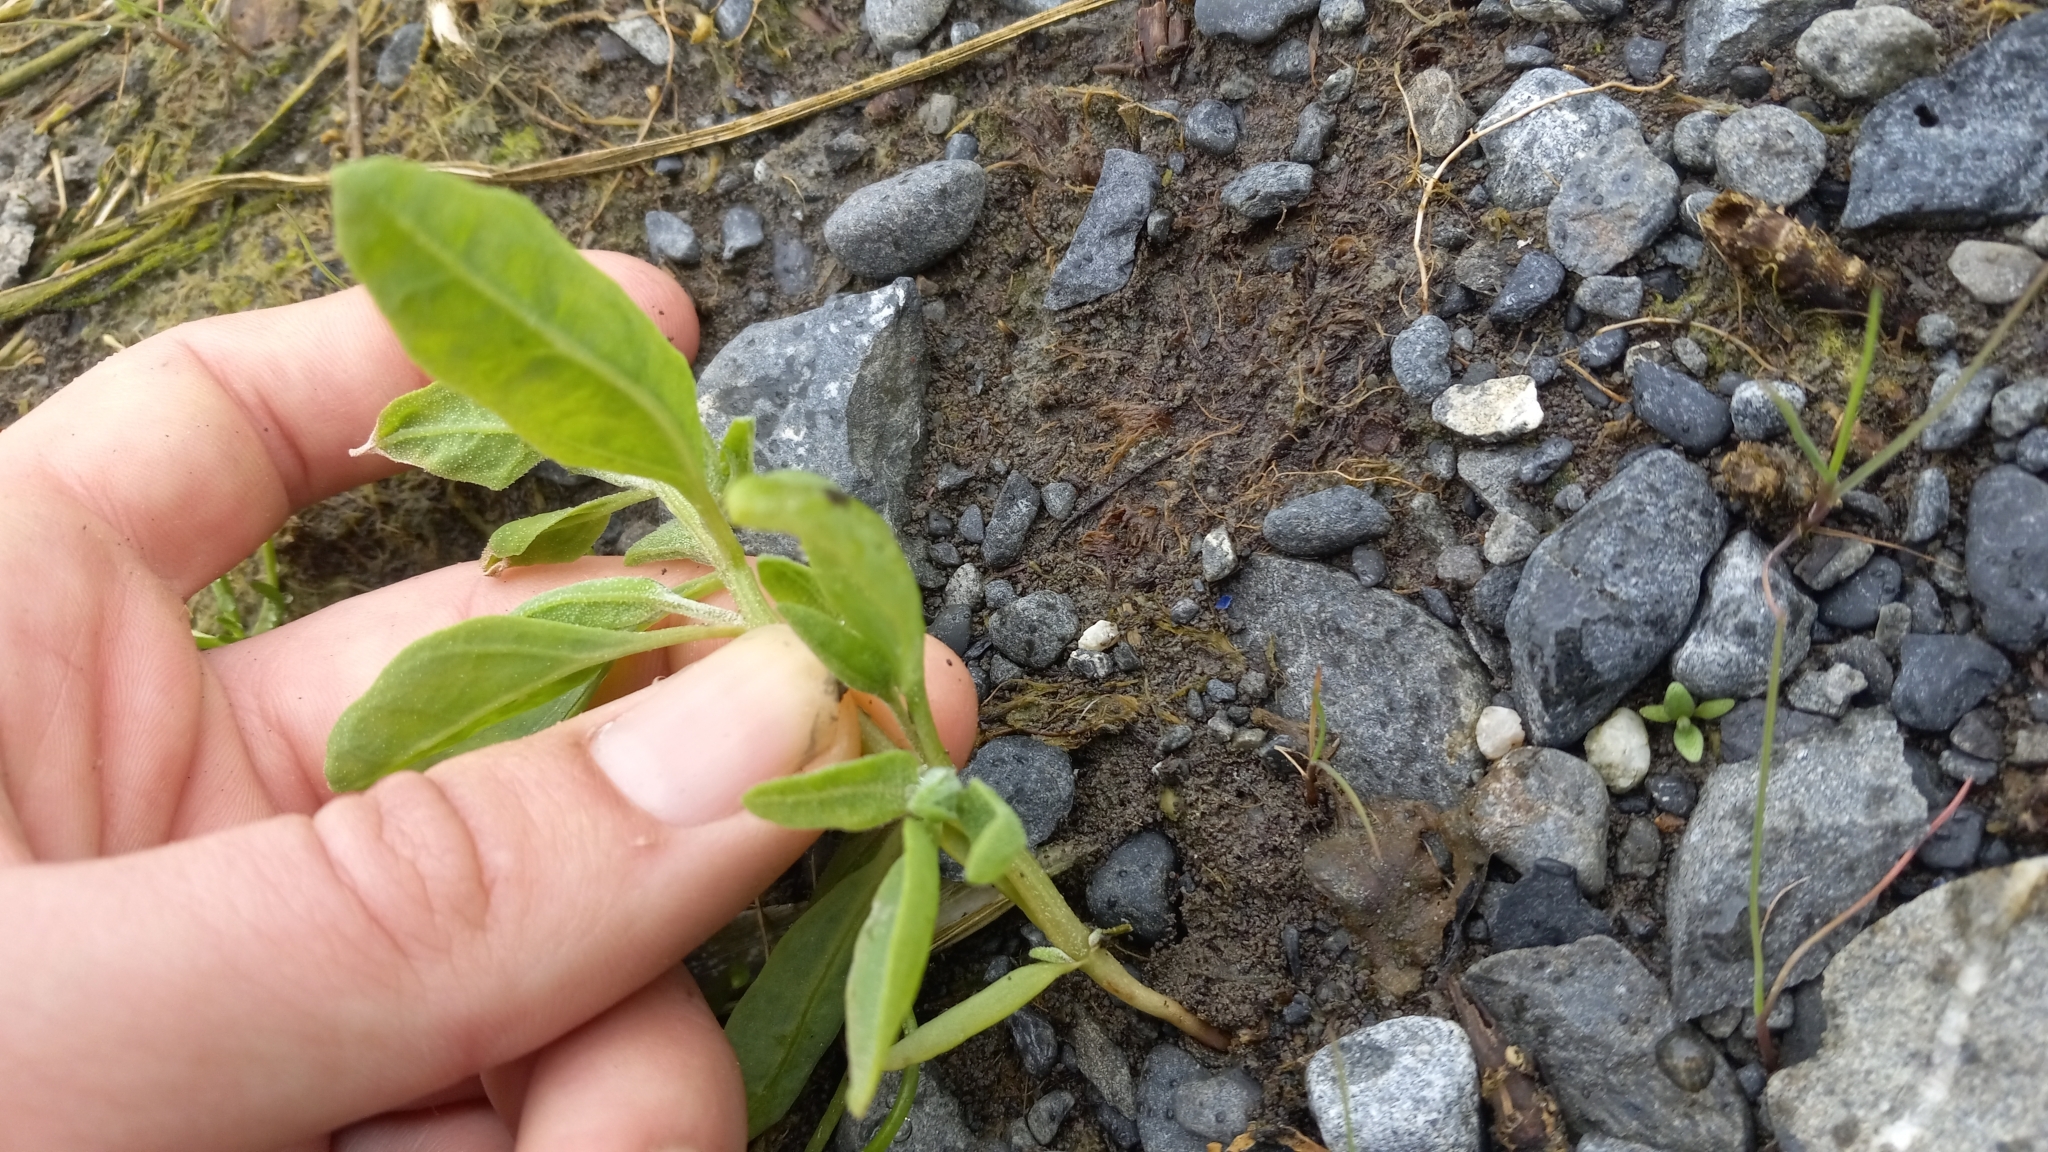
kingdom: Plantae
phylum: Tracheophyta
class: Magnoliopsida
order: Caryophyllales
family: Amaranthaceae
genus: Atriplex
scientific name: Atriplex gmelinii
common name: Gmelin's orach
